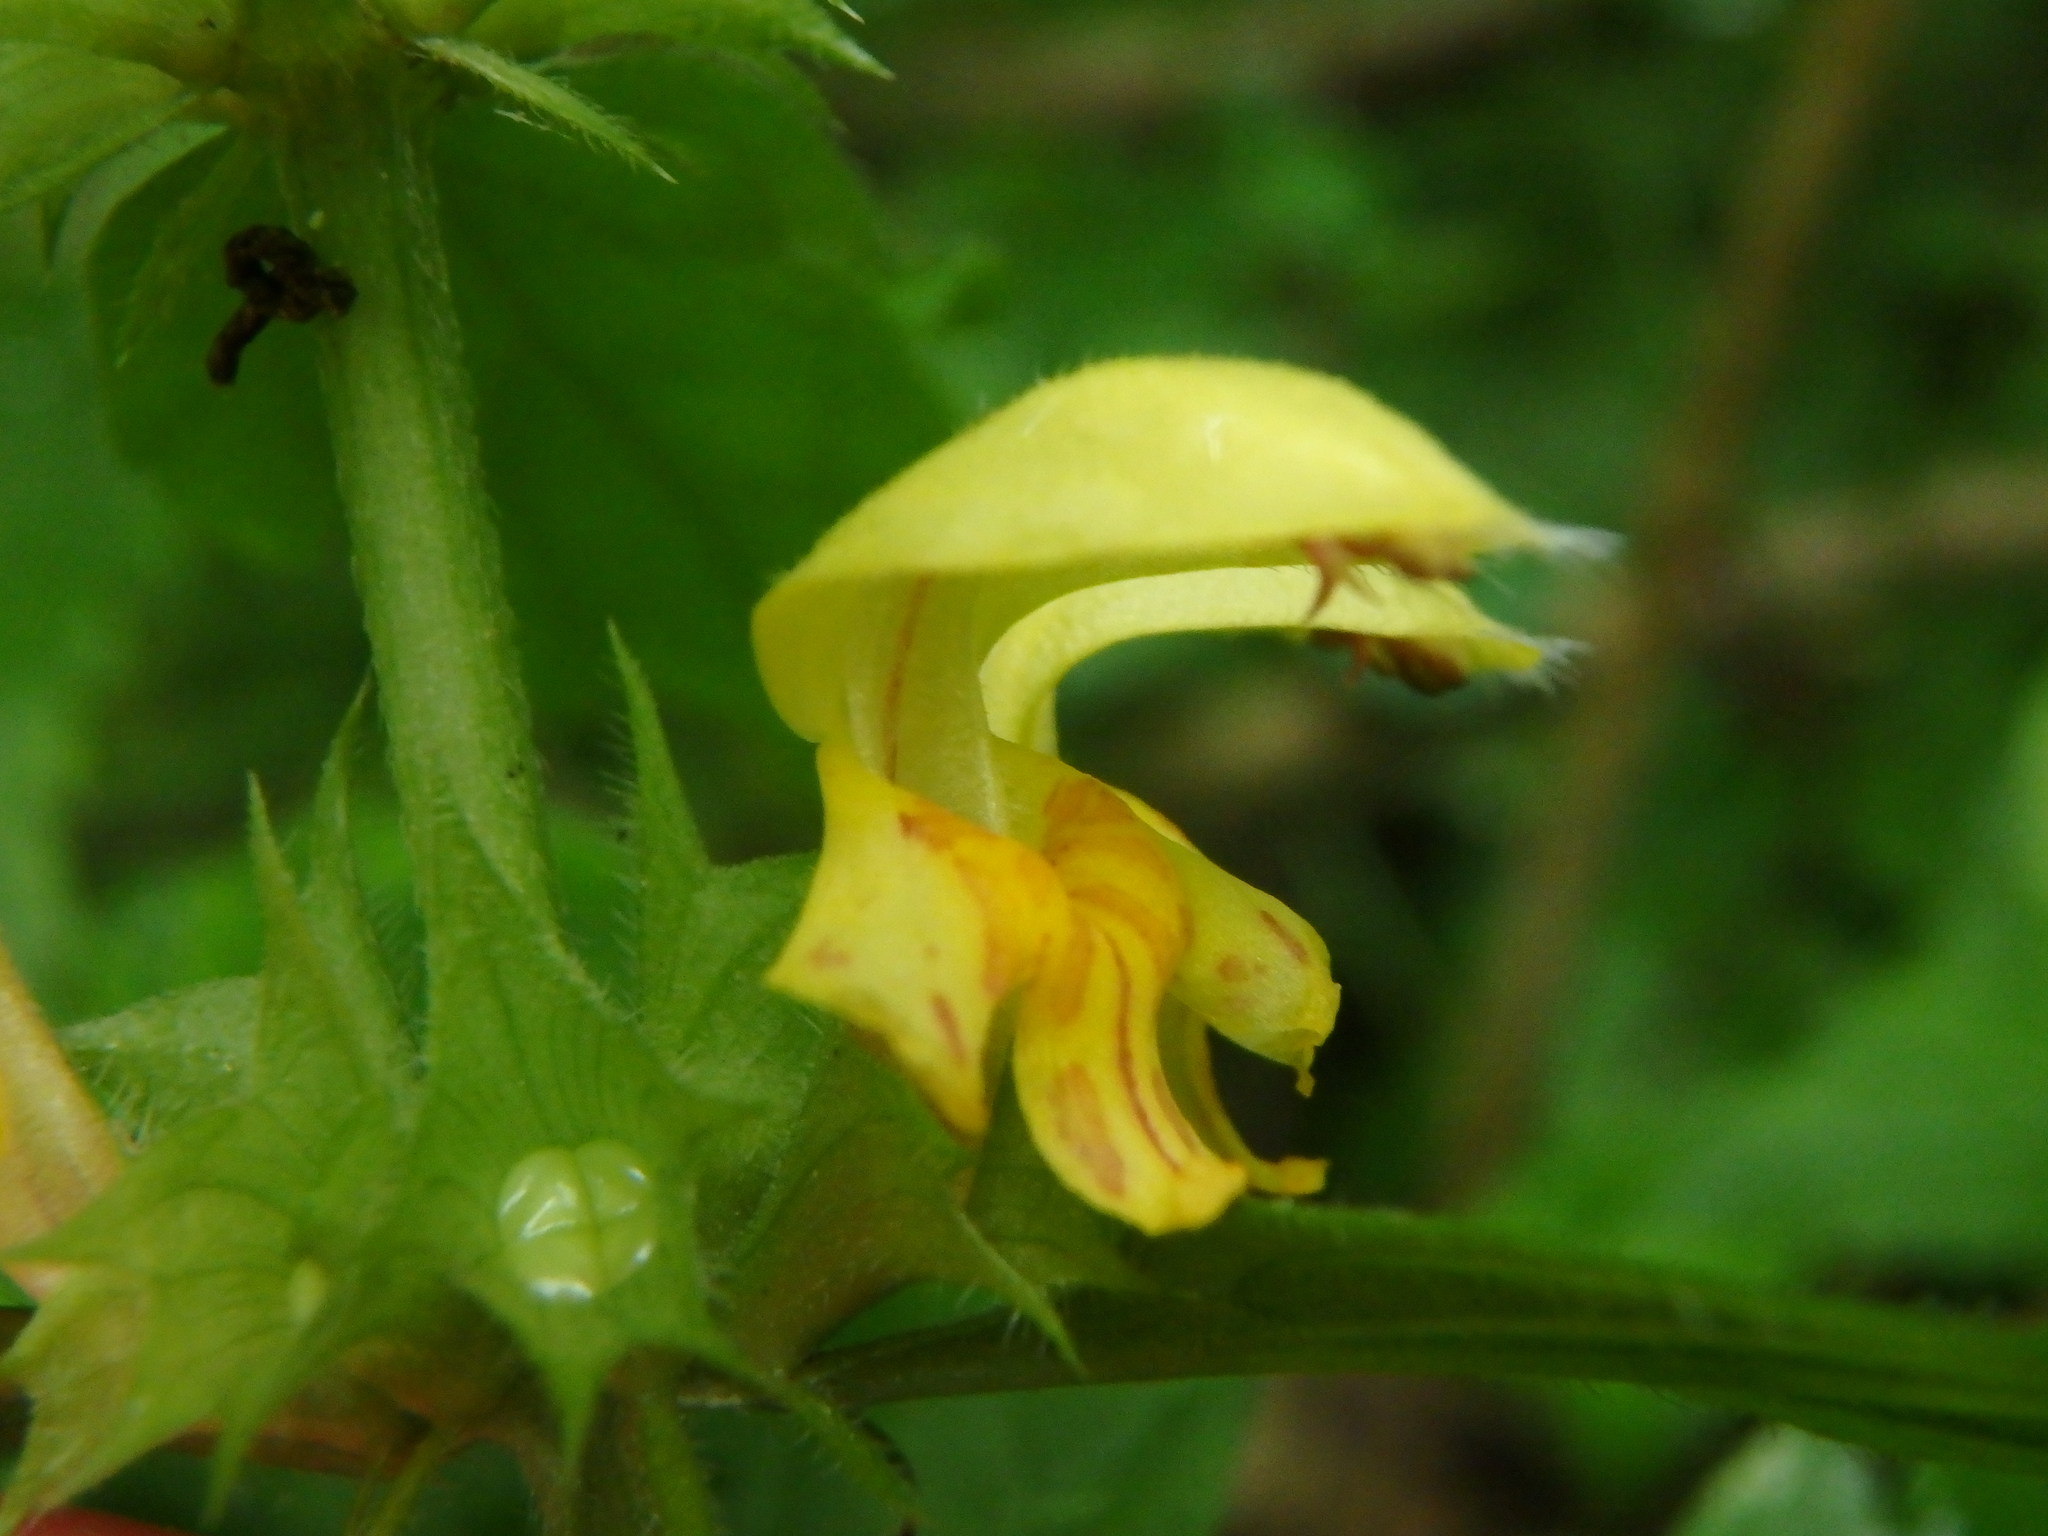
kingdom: Plantae
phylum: Tracheophyta
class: Magnoliopsida
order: Lamiales
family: Lamiaceae
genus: Lamium
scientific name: Lamium galeobdolon
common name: Yellow archangel
